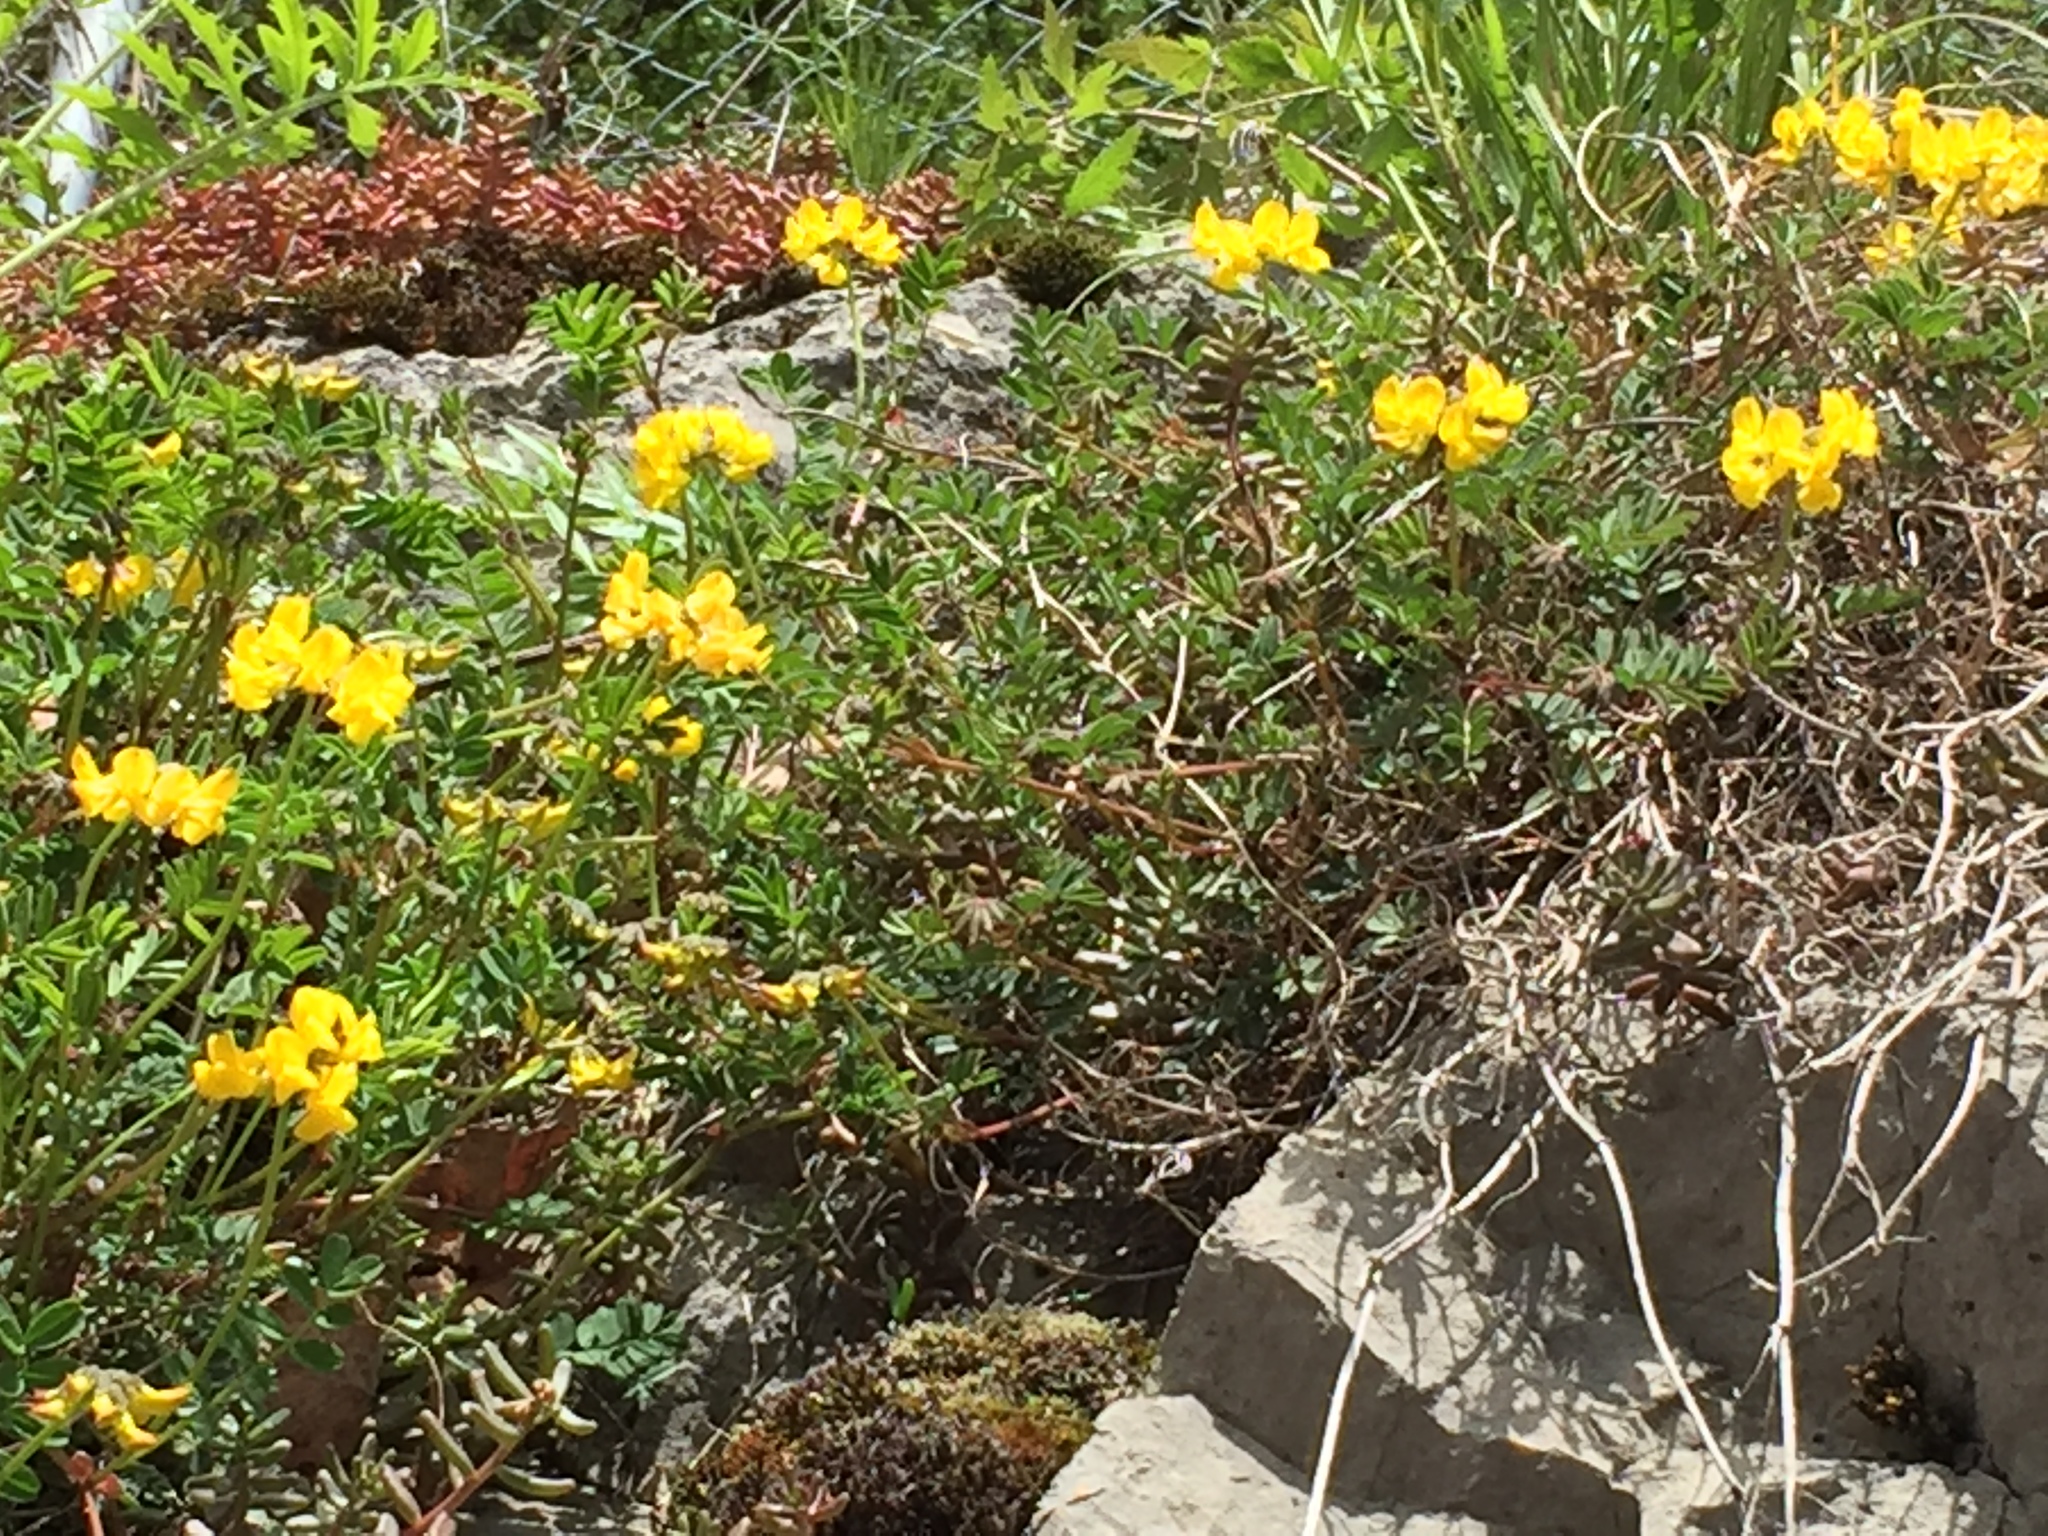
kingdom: Plantae
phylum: Tracheophyta
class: Magnoliopsida
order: Fabales
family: Fabaceae
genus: Hippocrepis
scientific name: Hippocrepis comosa
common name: Horseshoe vetch
